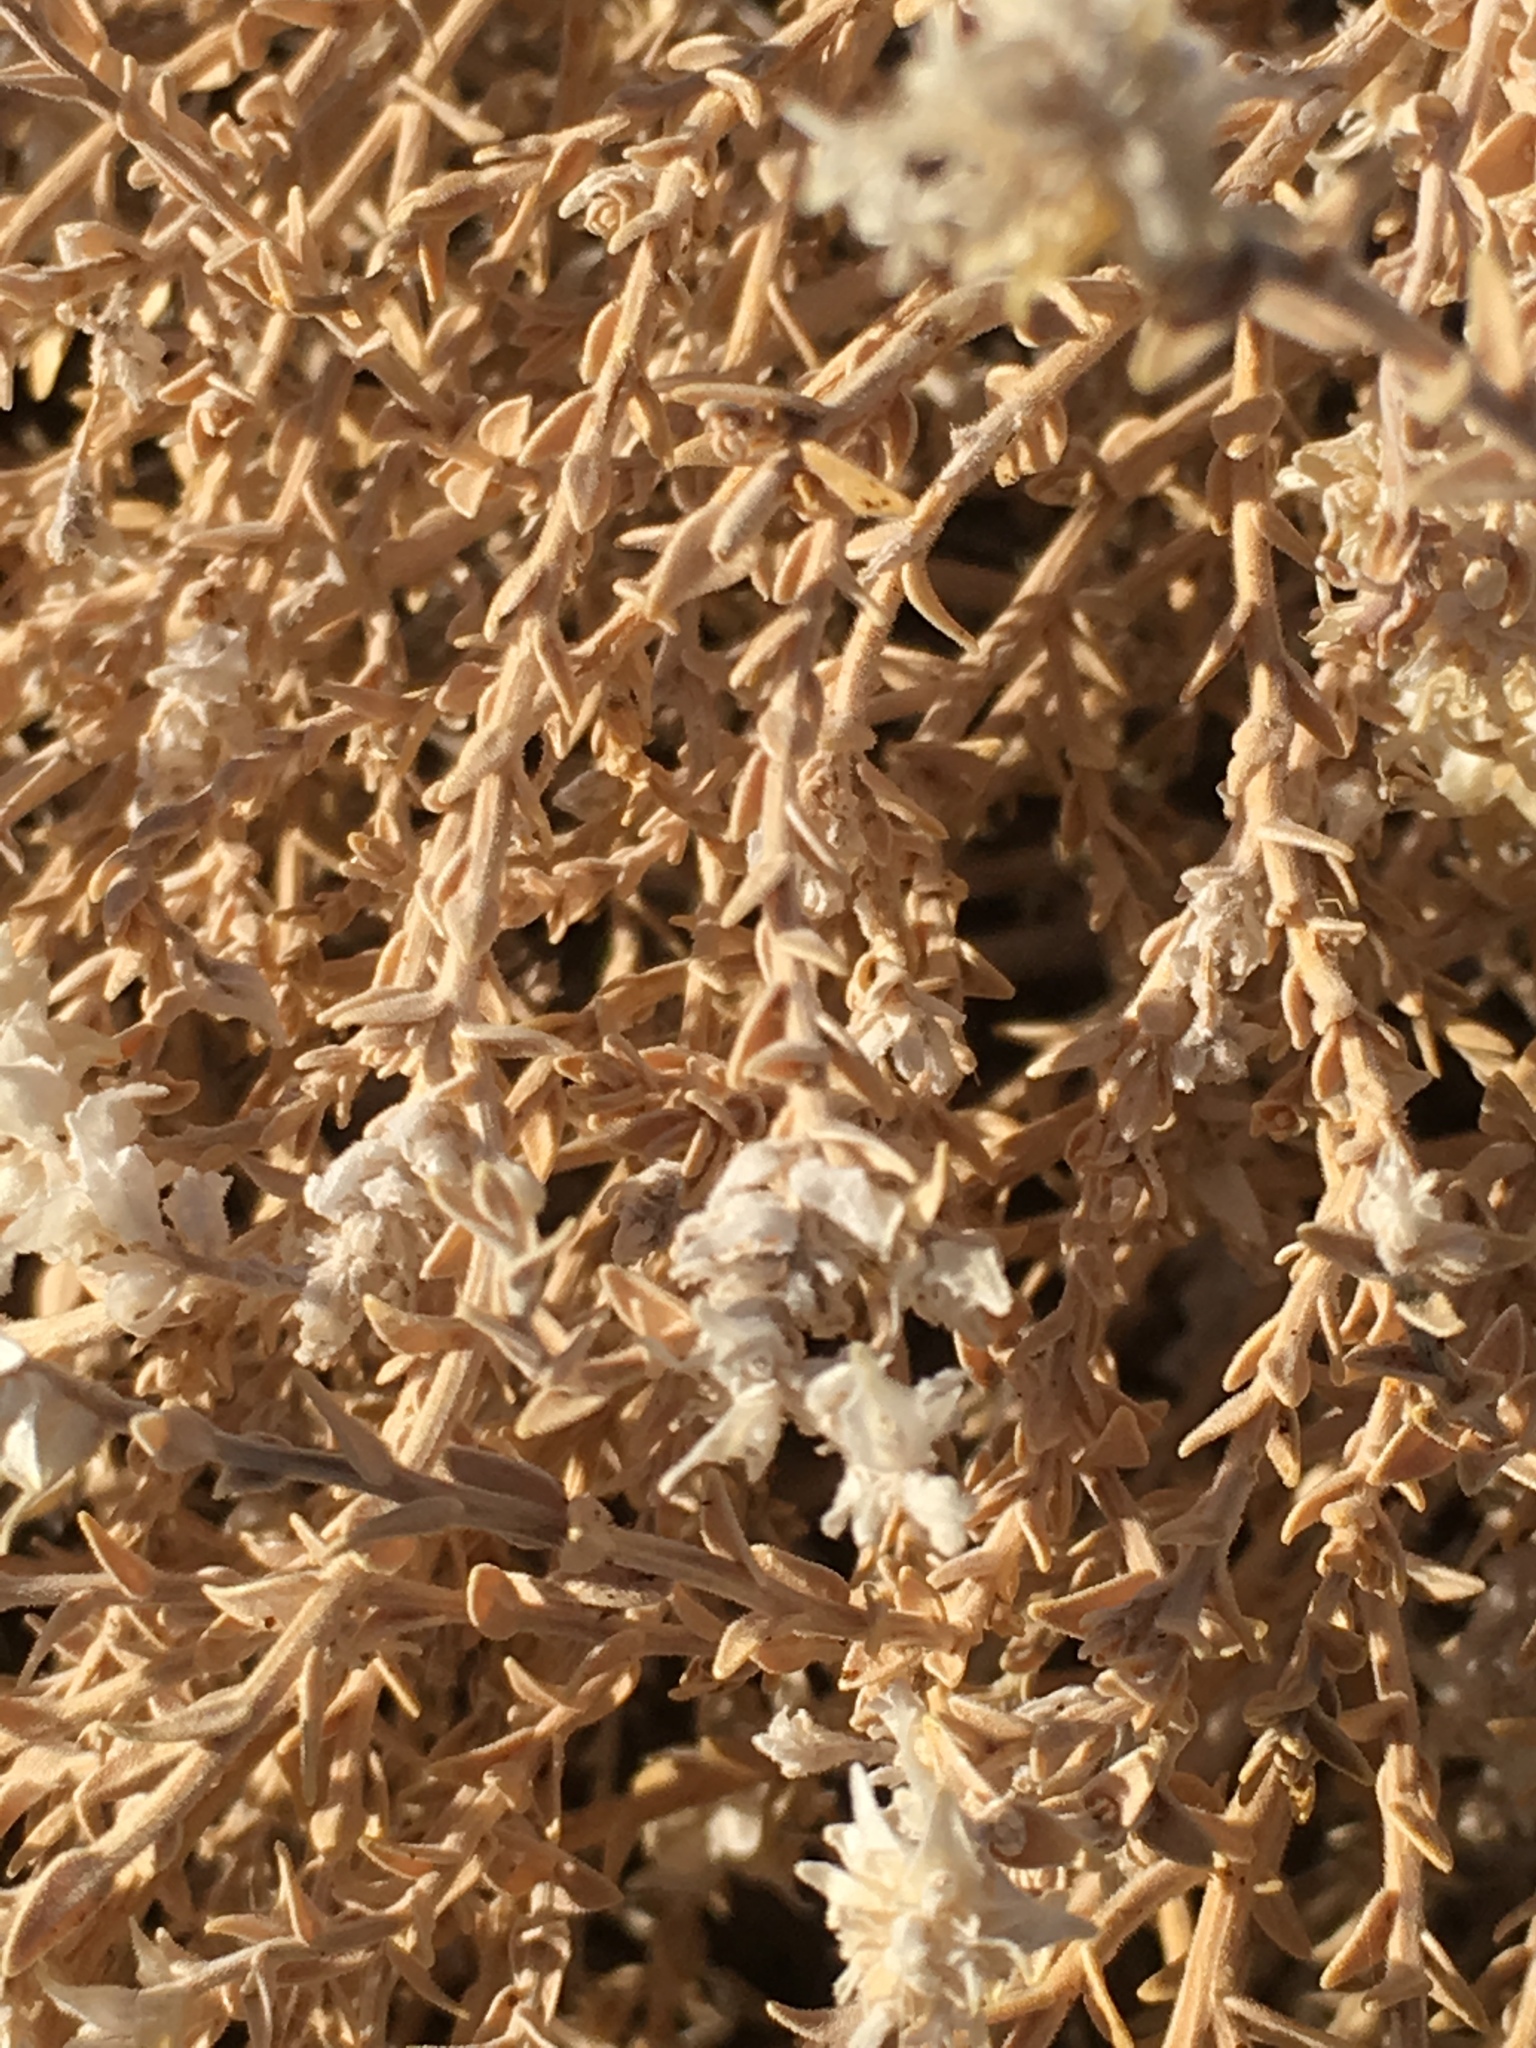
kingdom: Plantae
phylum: Tracheophyta
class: Magnoliopsida
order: Cornales
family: Loasaceae
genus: Petalonyx
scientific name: Petalonyx thurberi
